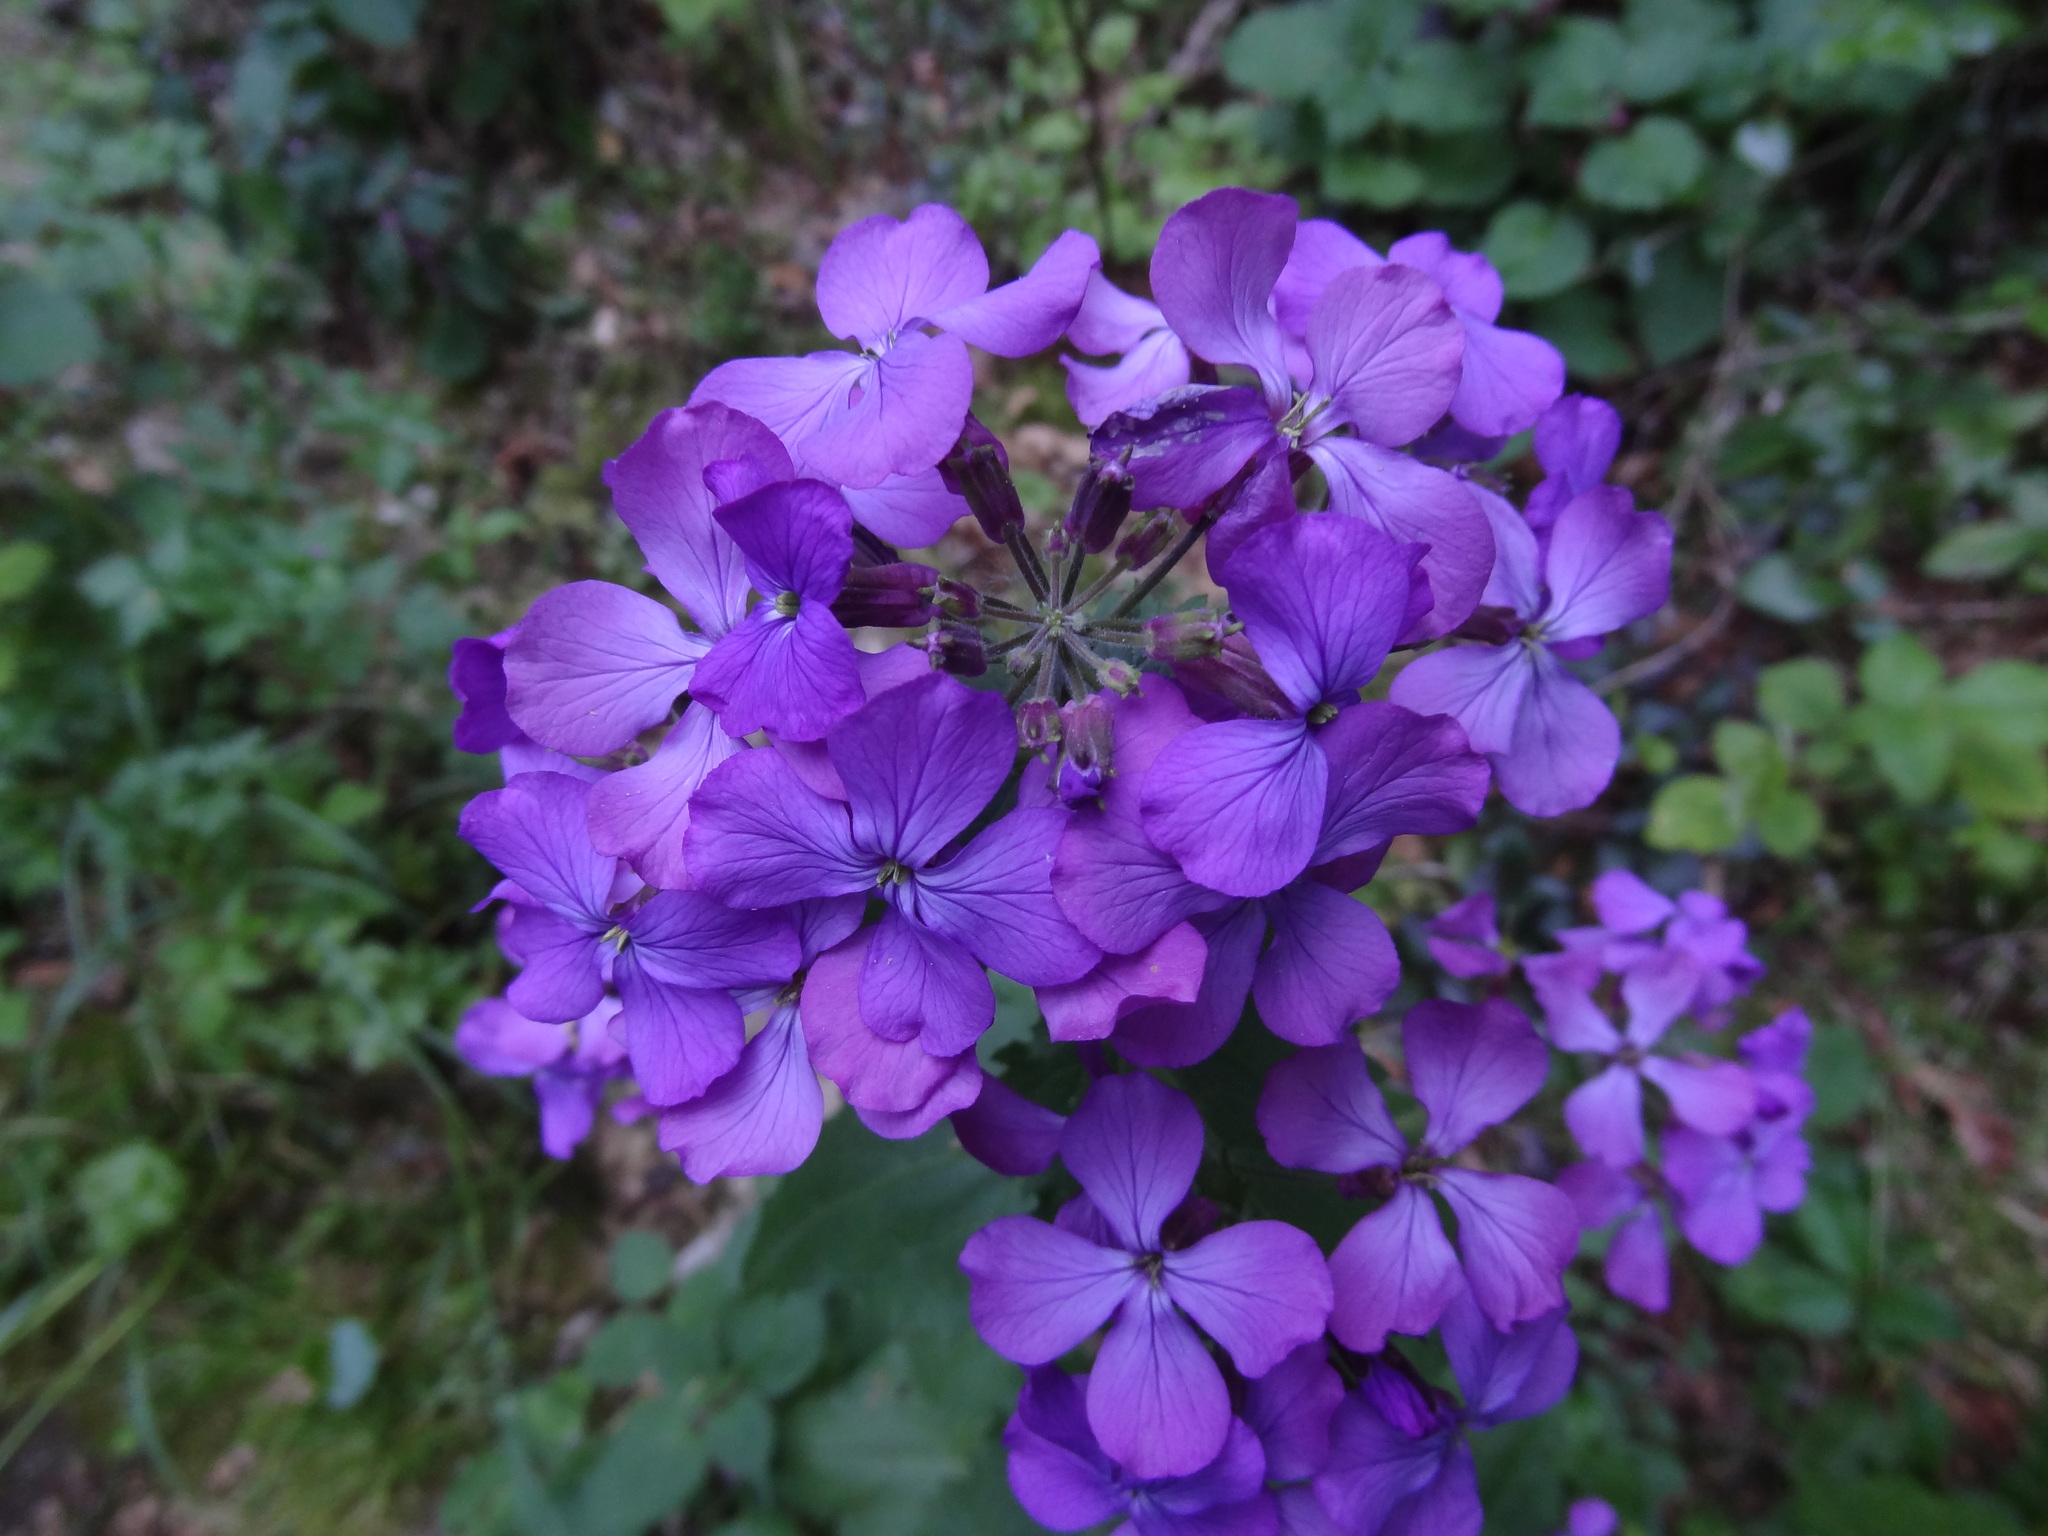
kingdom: Plantae
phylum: Tracheophyta
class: Magnoliopsida
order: Brassicales
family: Brassicaceae
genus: Lunaria
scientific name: Lunaria annua
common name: Honesty
